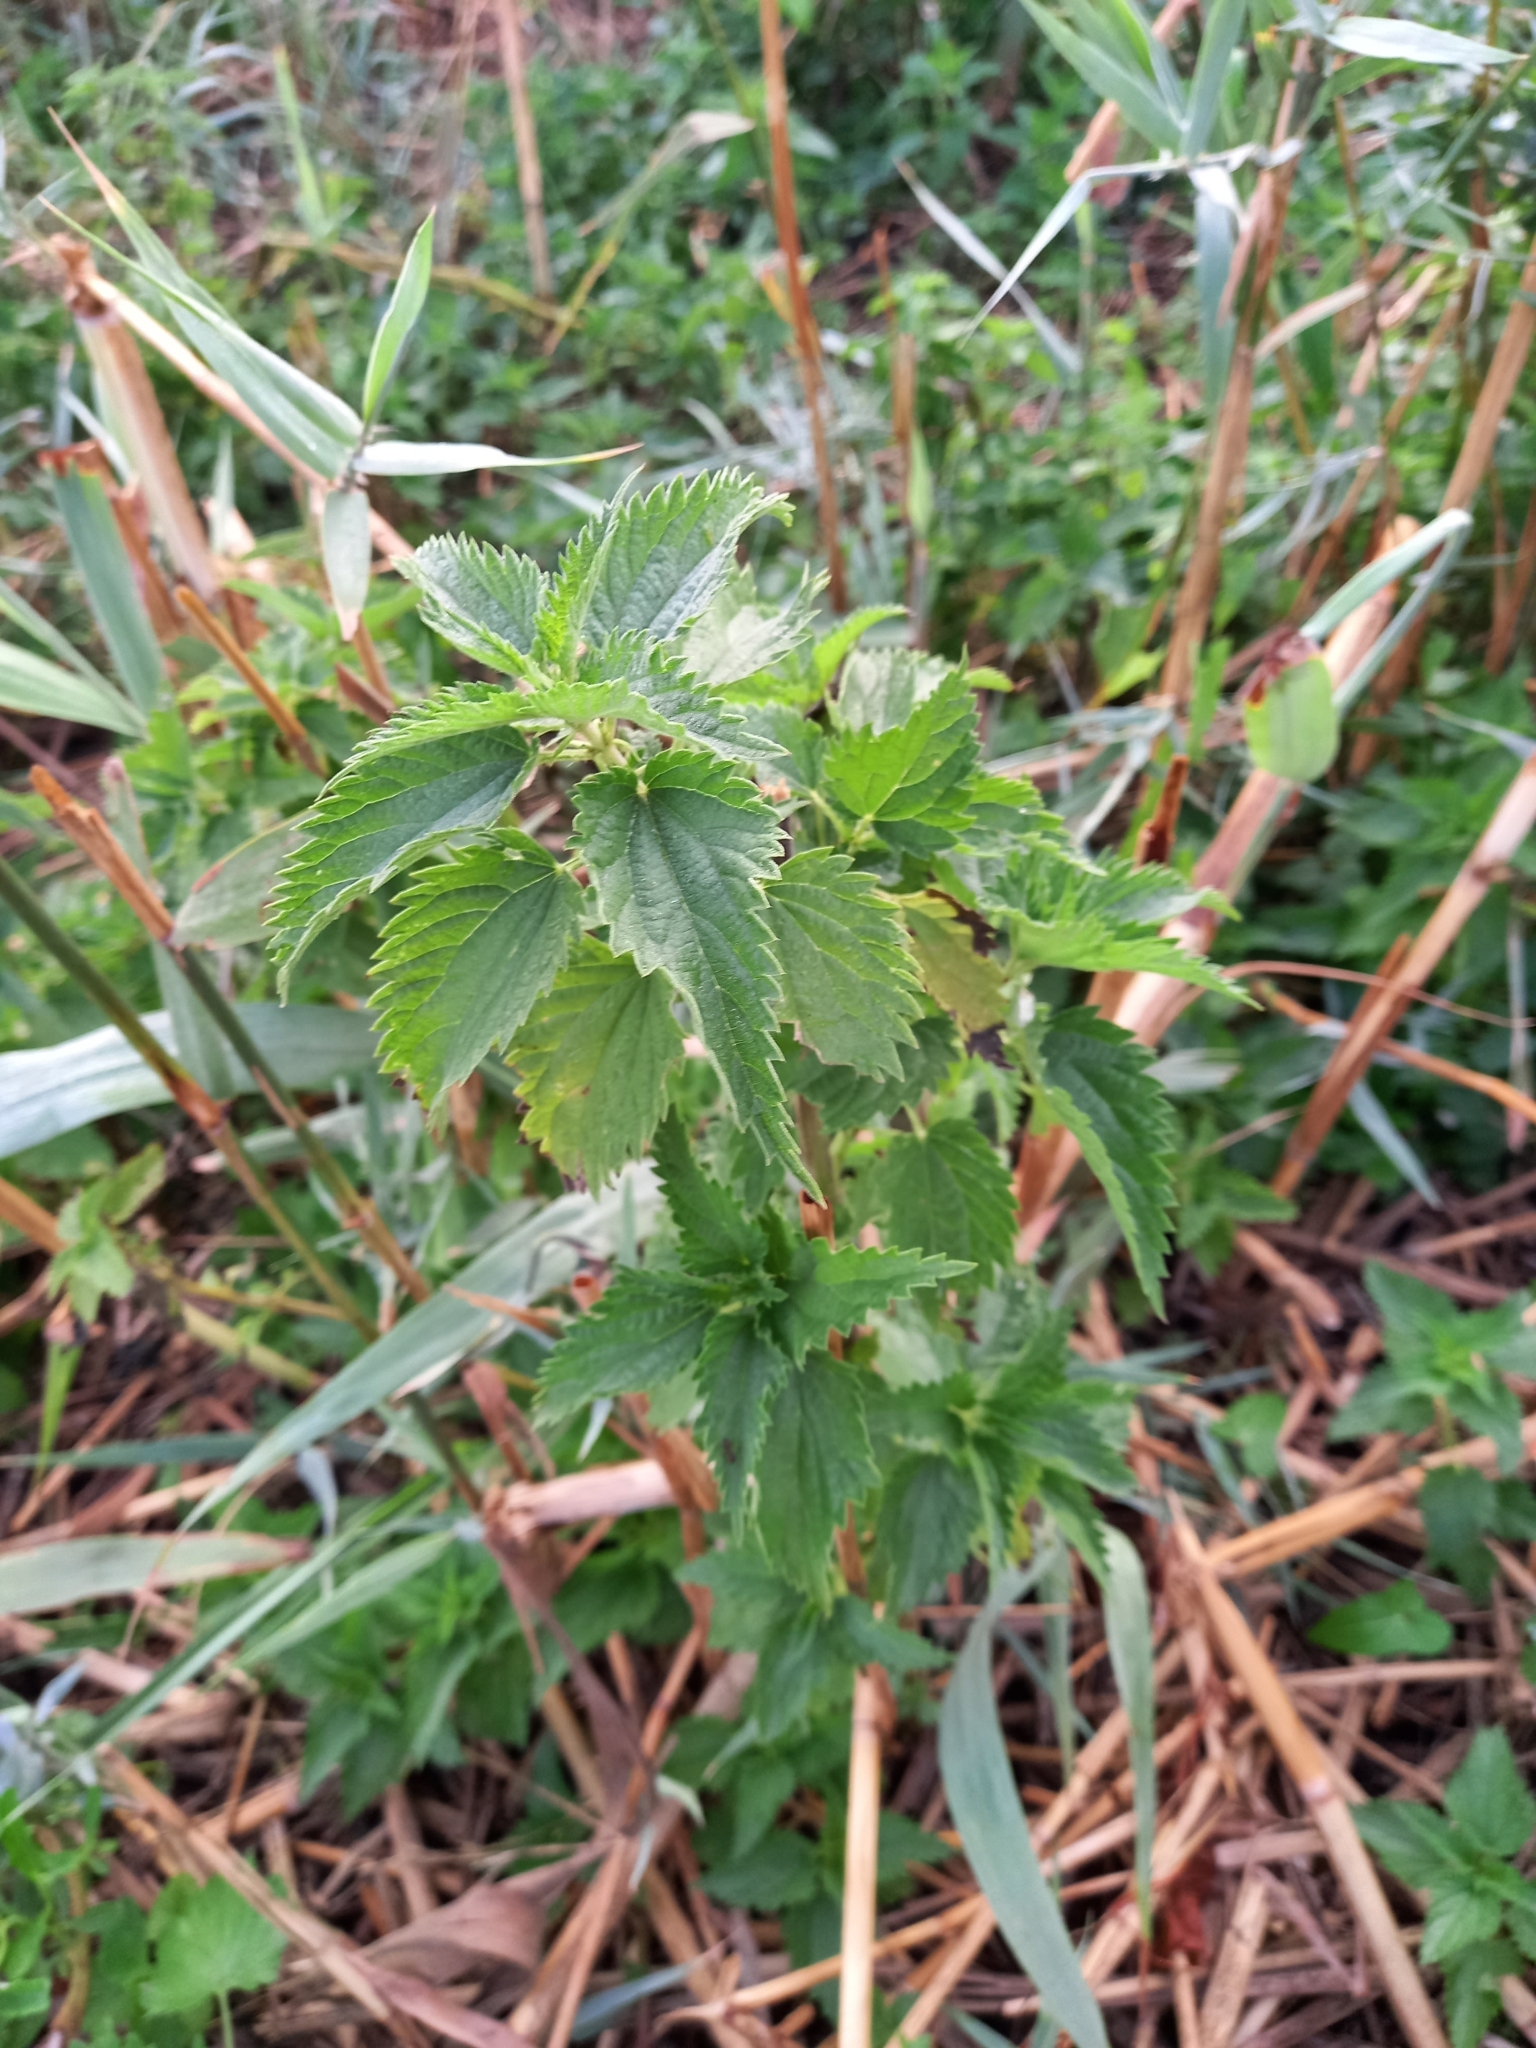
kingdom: Plantae
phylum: Tracheophyta
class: Magnoliopsida
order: Rosales
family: Urticaceae
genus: Urtica
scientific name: Urtica dioica
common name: Common nettle
